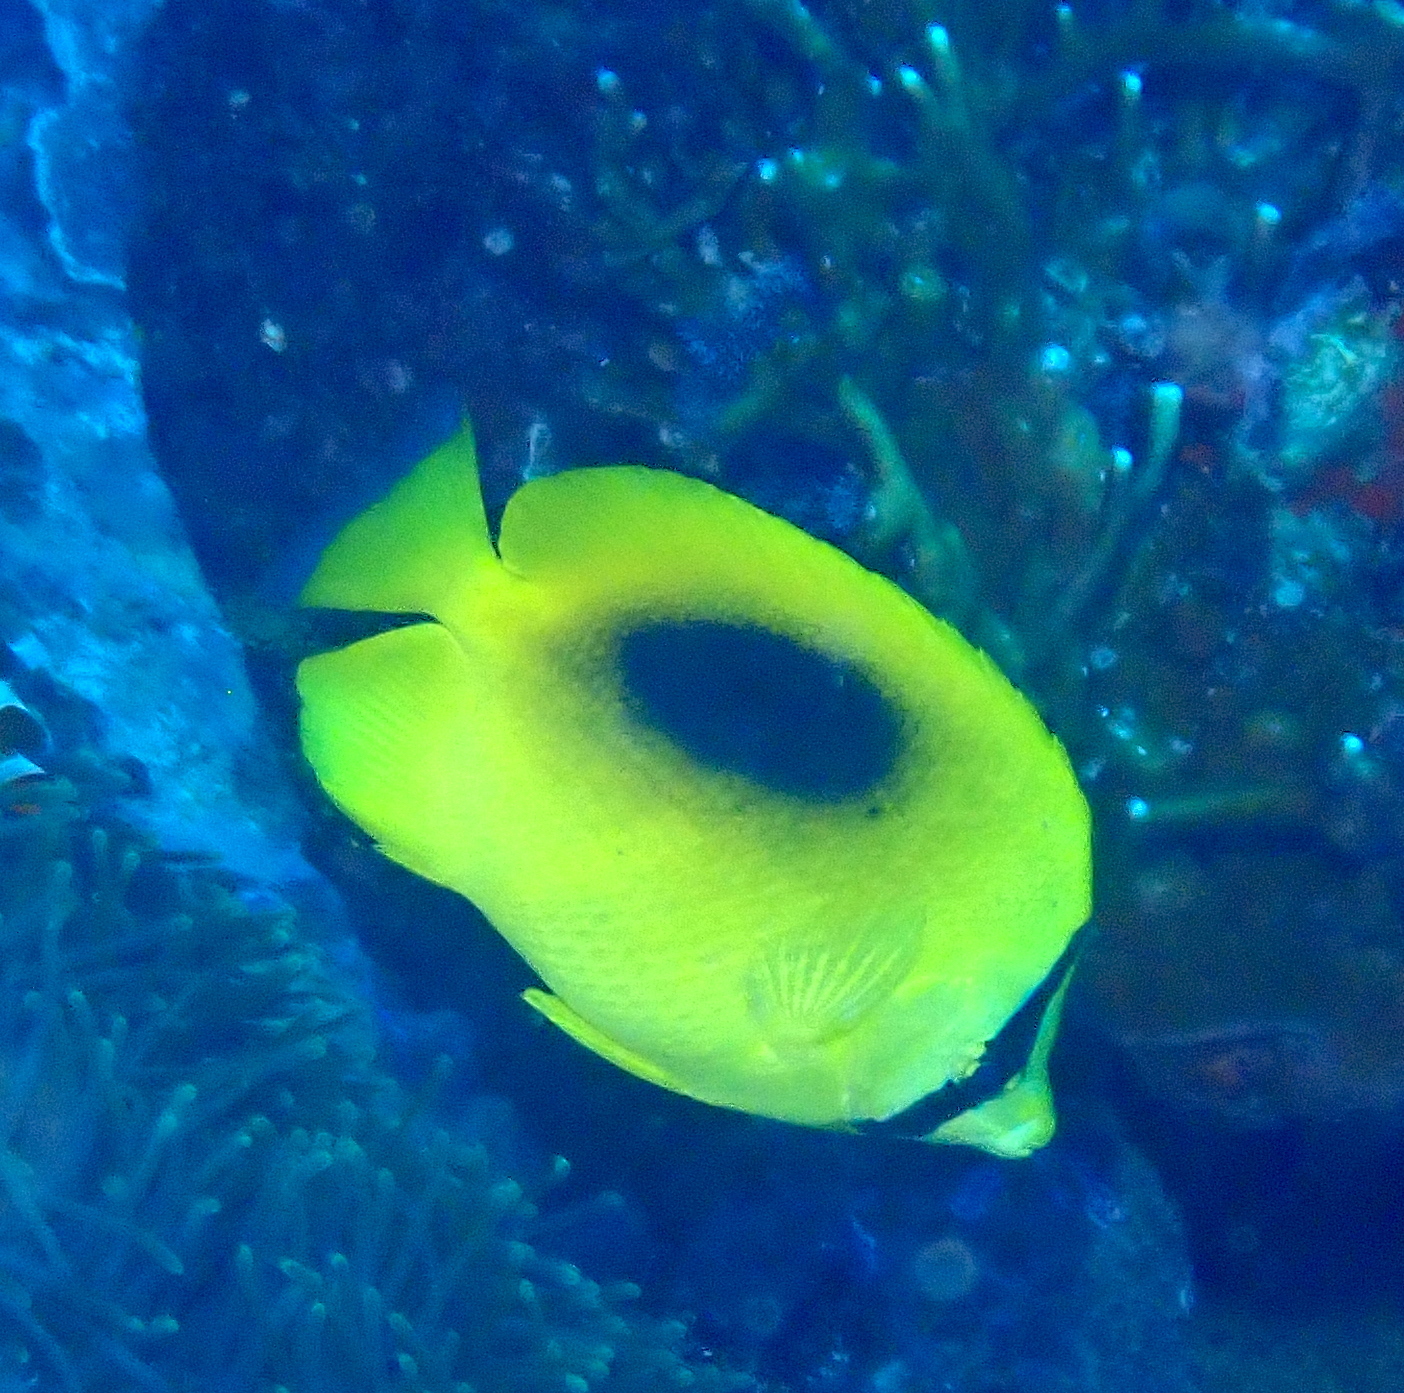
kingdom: Animalia
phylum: Chordata
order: Perciformes
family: Chaetodontidae
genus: Chaetodon
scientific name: Chaetodon speculum
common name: Mirror butterflyfish
